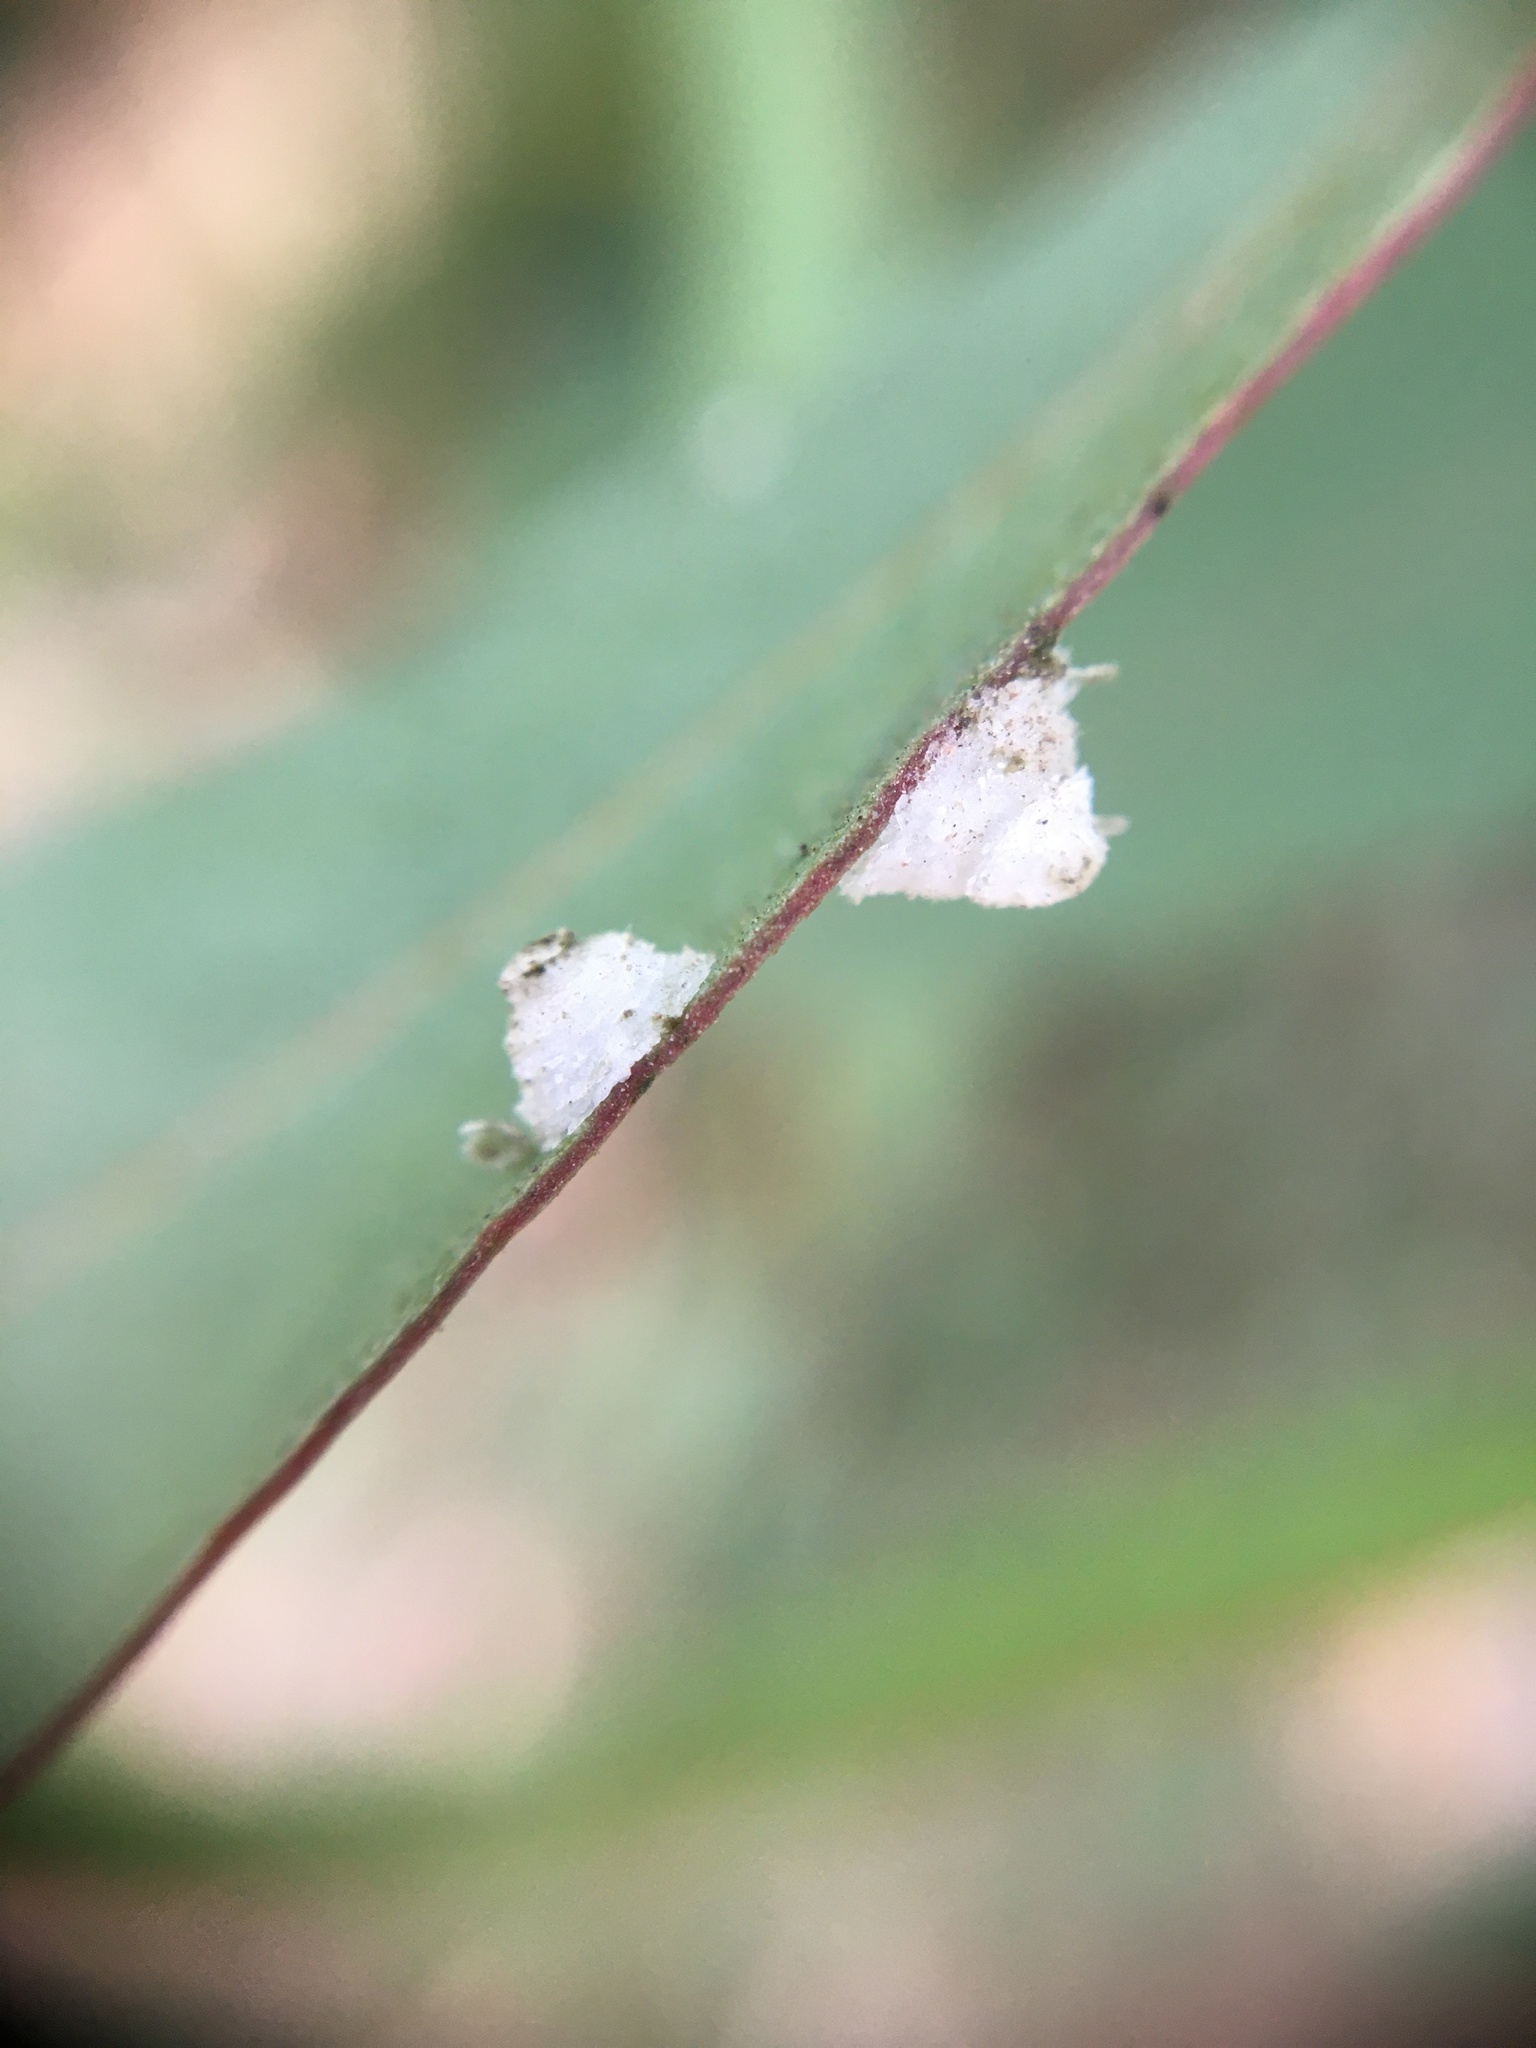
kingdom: Animalia
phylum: Arthropoda
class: Insecta
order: Hemiptera
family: Aphalaridae
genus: Glycaspis
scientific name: Glycaspis brimblecombei
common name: Red gum lerp psyllid
